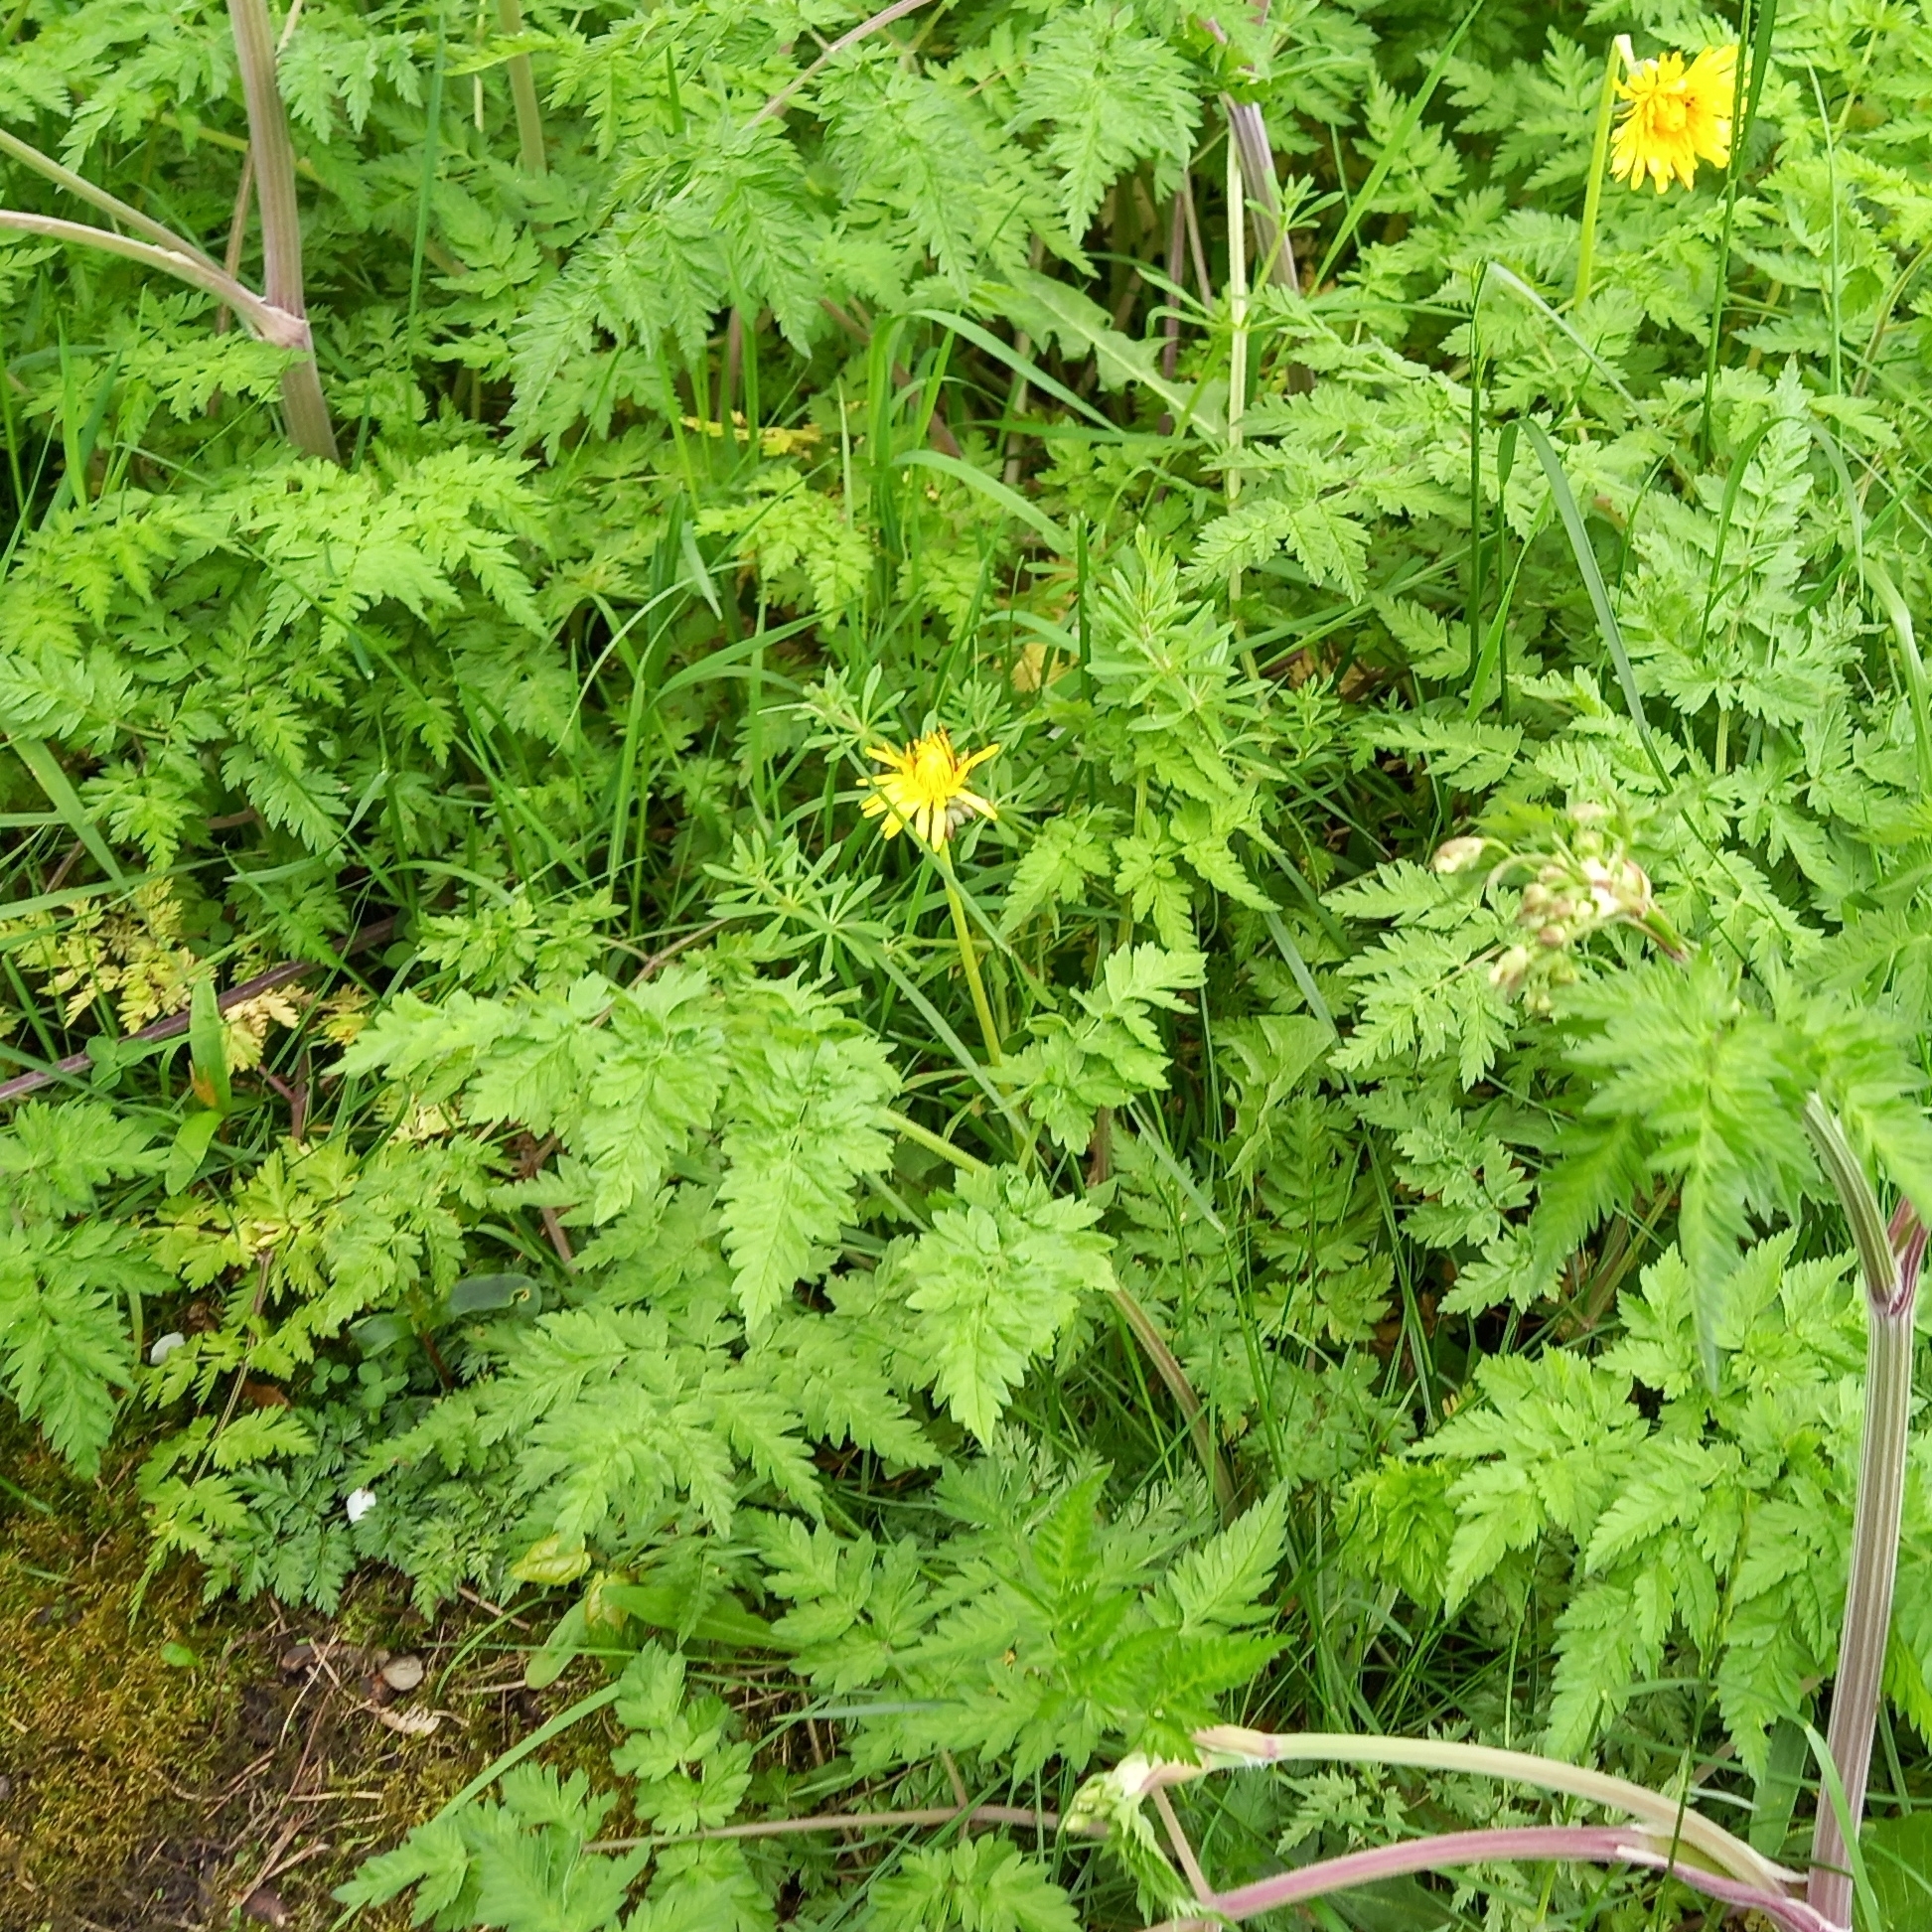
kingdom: Plantae
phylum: Tracheophyta
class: Magnoliopsida
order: Apiales
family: Apiaceae
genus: Anthriscus
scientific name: Anthriscus sylvestris
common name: Cow parsley
